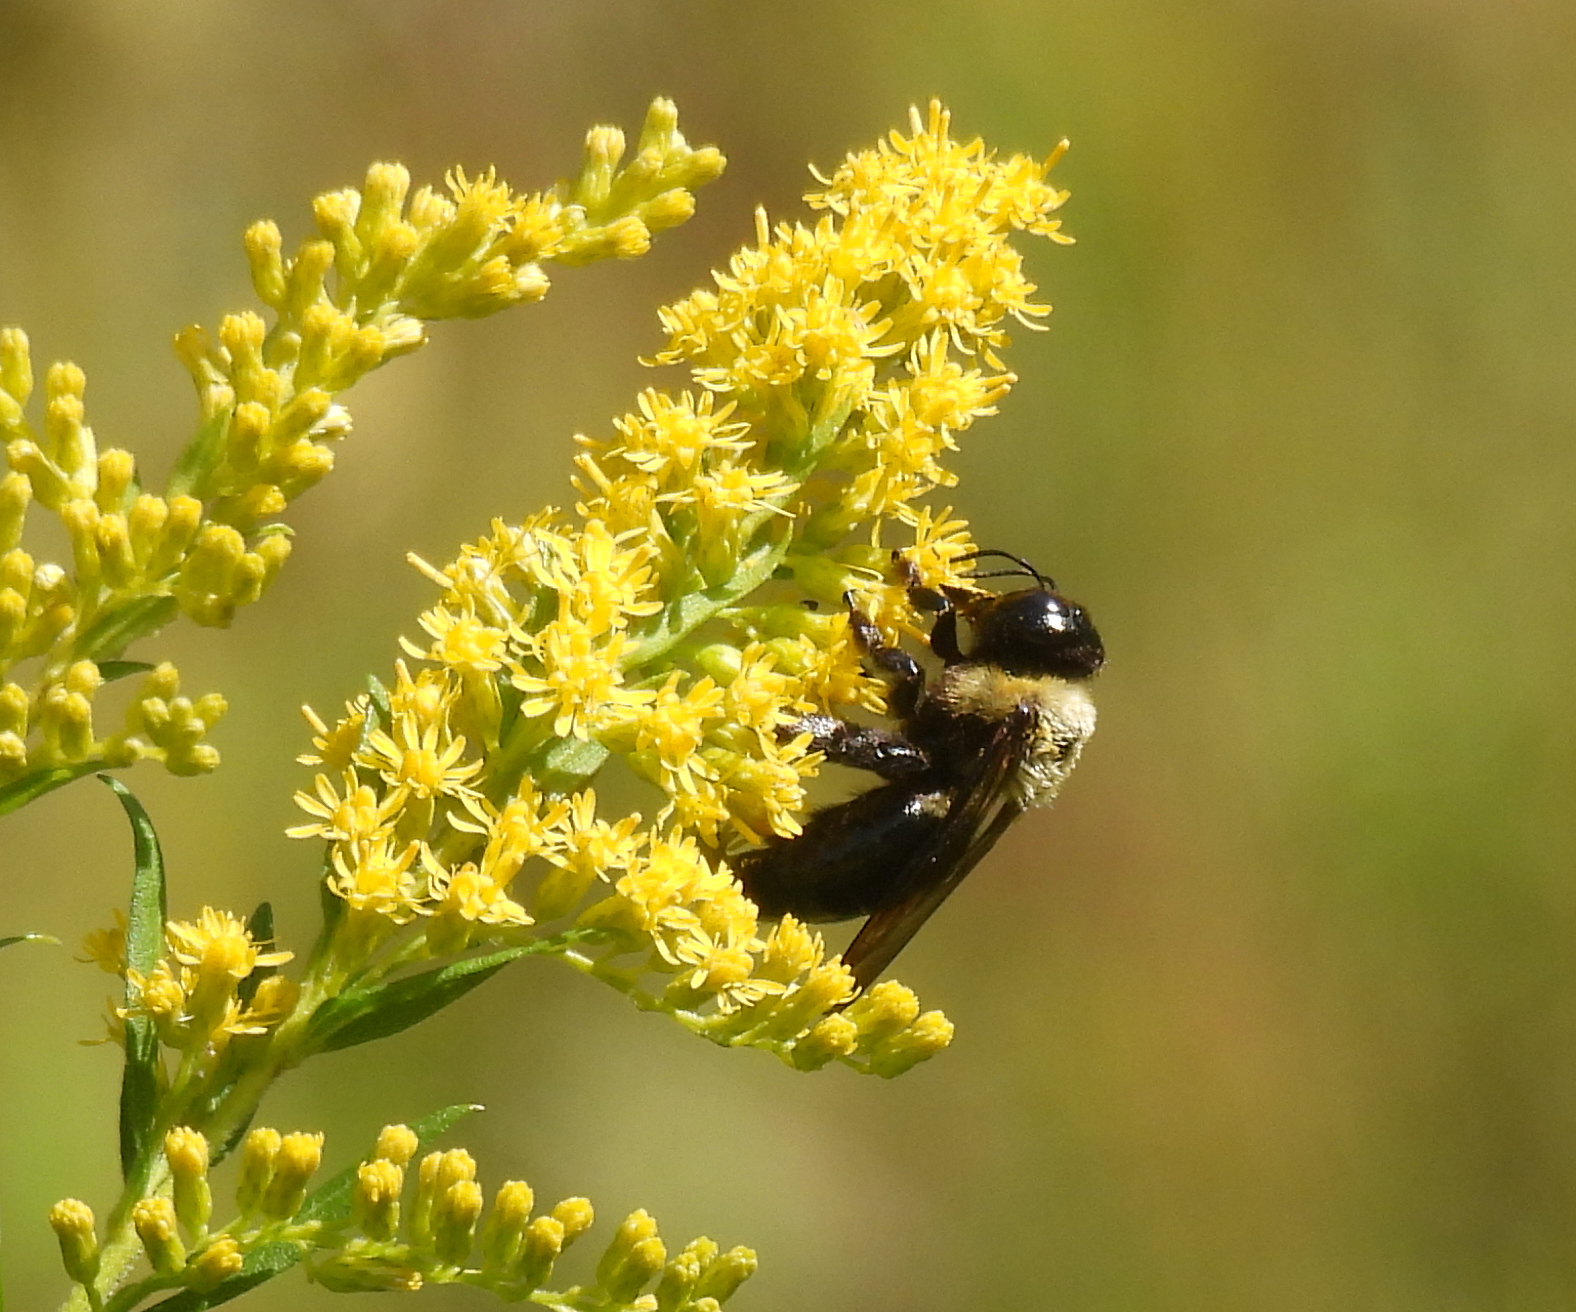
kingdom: Animalia
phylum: Arthropoda
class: Insecta
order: Hymenoptera
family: Apidae
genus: Xylocopa
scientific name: Xylocopa virginica
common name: Carpenter bee
